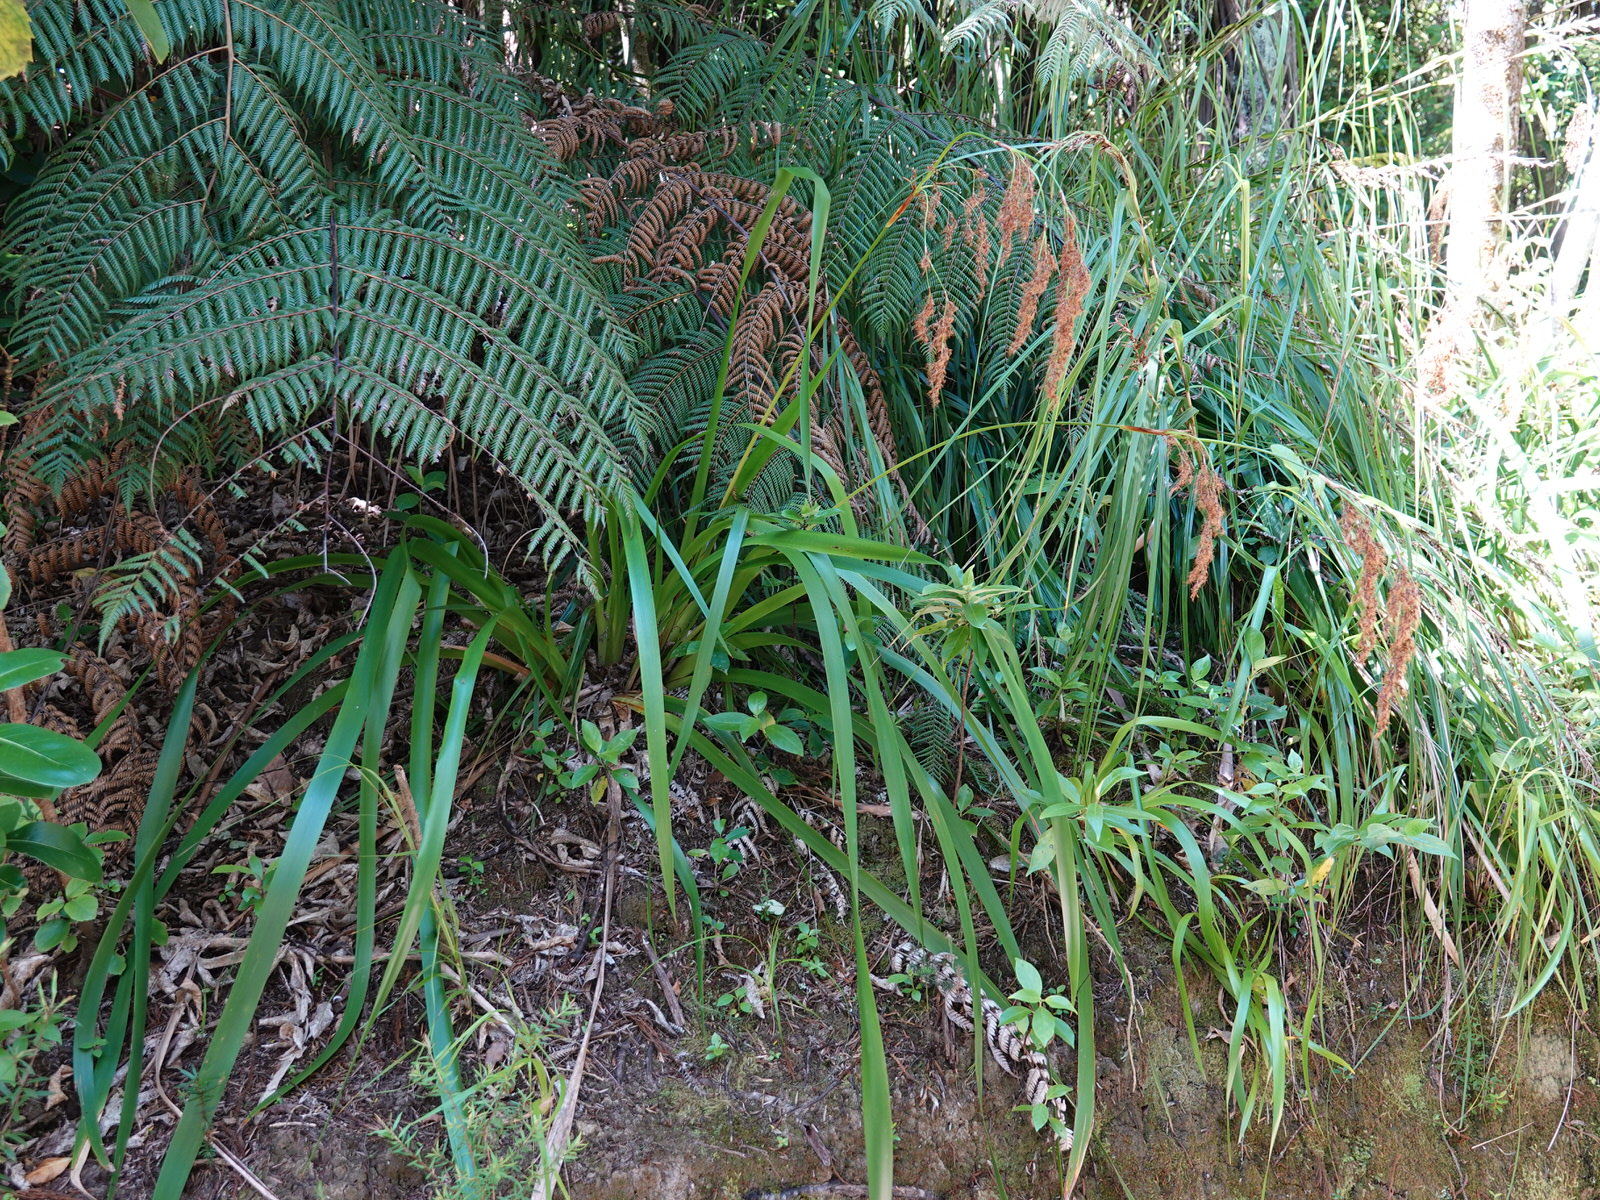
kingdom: Plantae
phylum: Tracheophyta
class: Liliopsida
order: Poales
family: Cyperaceae
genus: Machaerina
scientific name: Machaerina sinclairii
